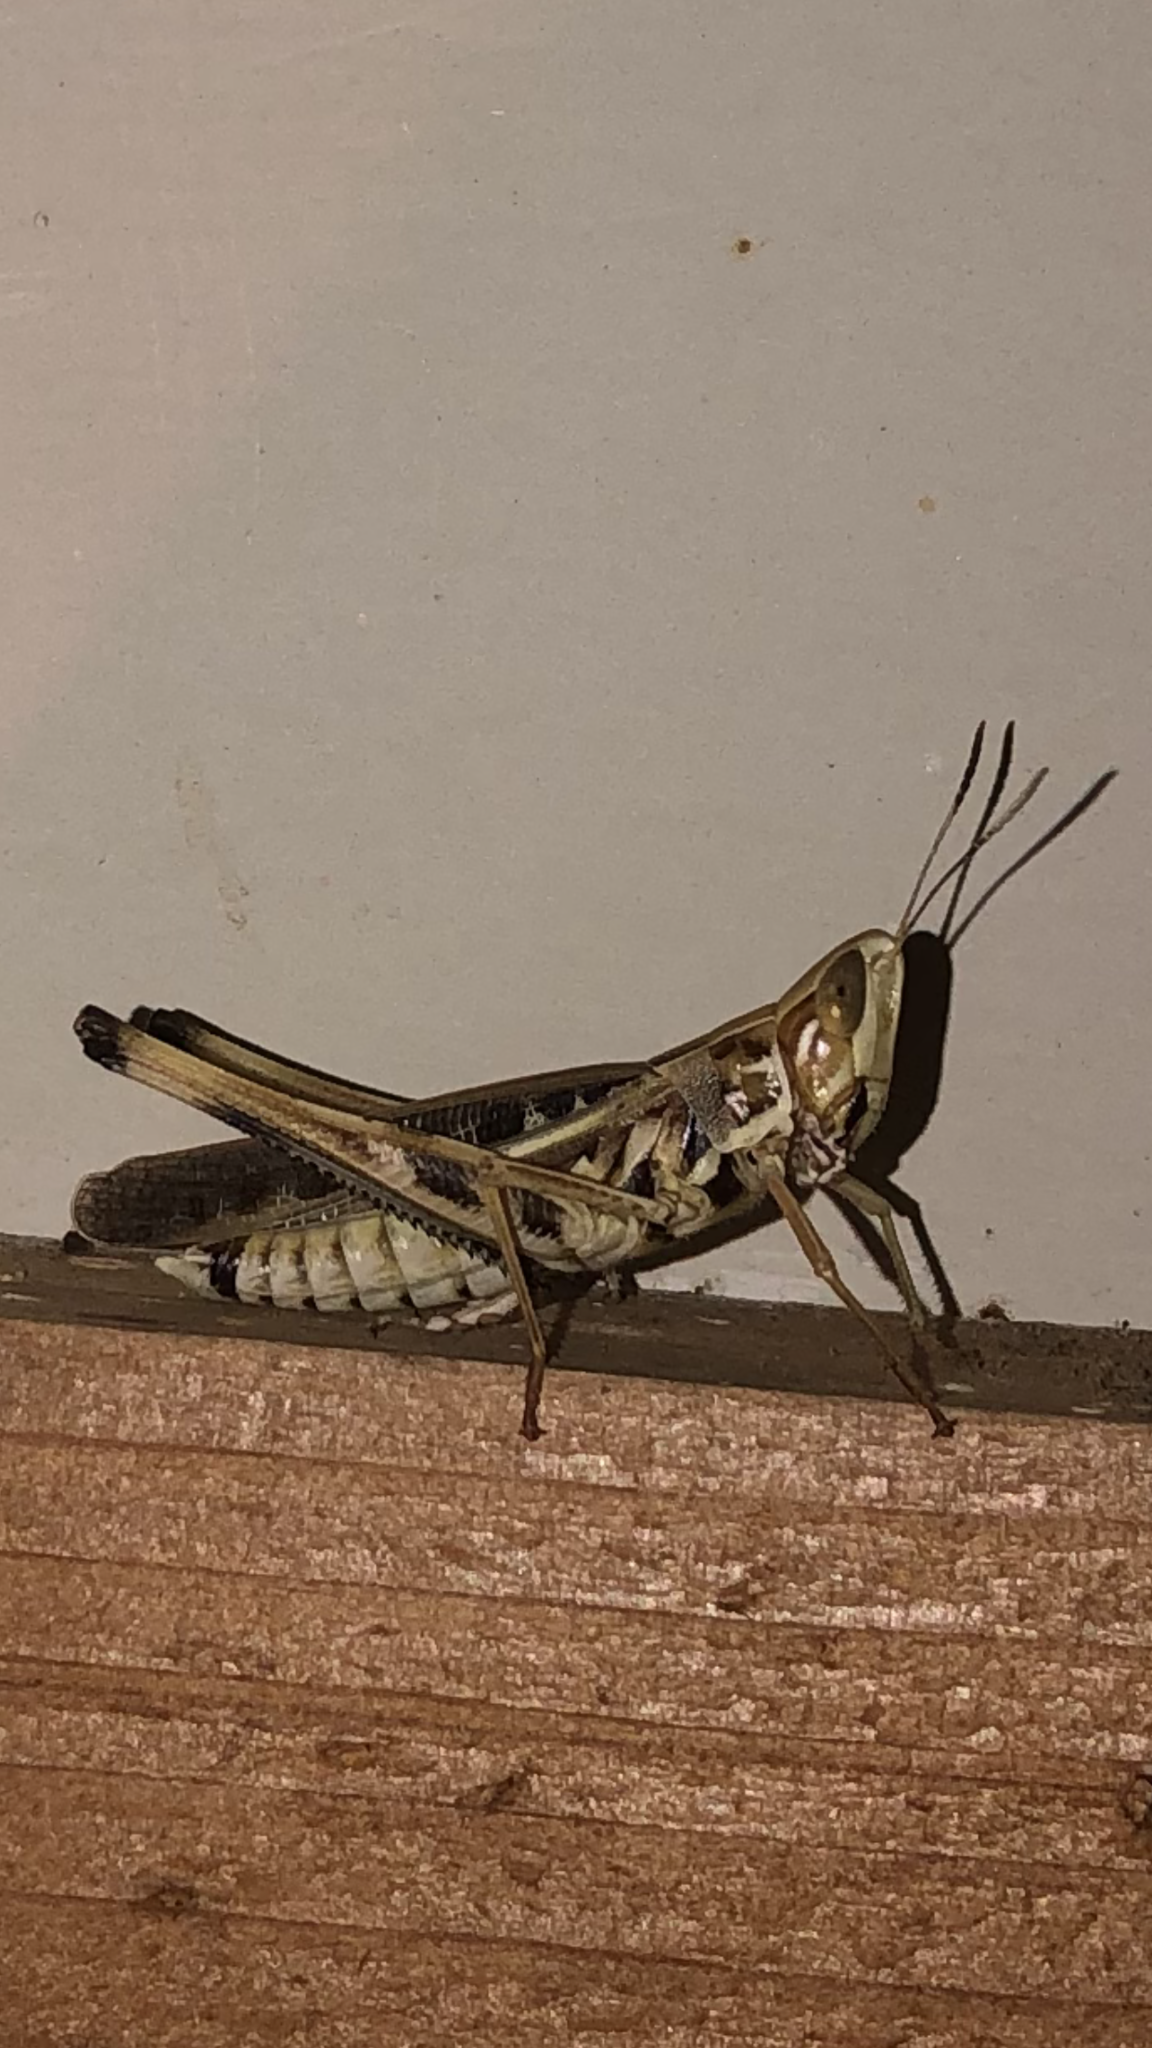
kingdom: Animalia
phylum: Arthropoda
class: Insecta
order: Orthoptera
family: Acrididae
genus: Syrbula
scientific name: Syrbula admirabilis
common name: Handsome grasshopper
